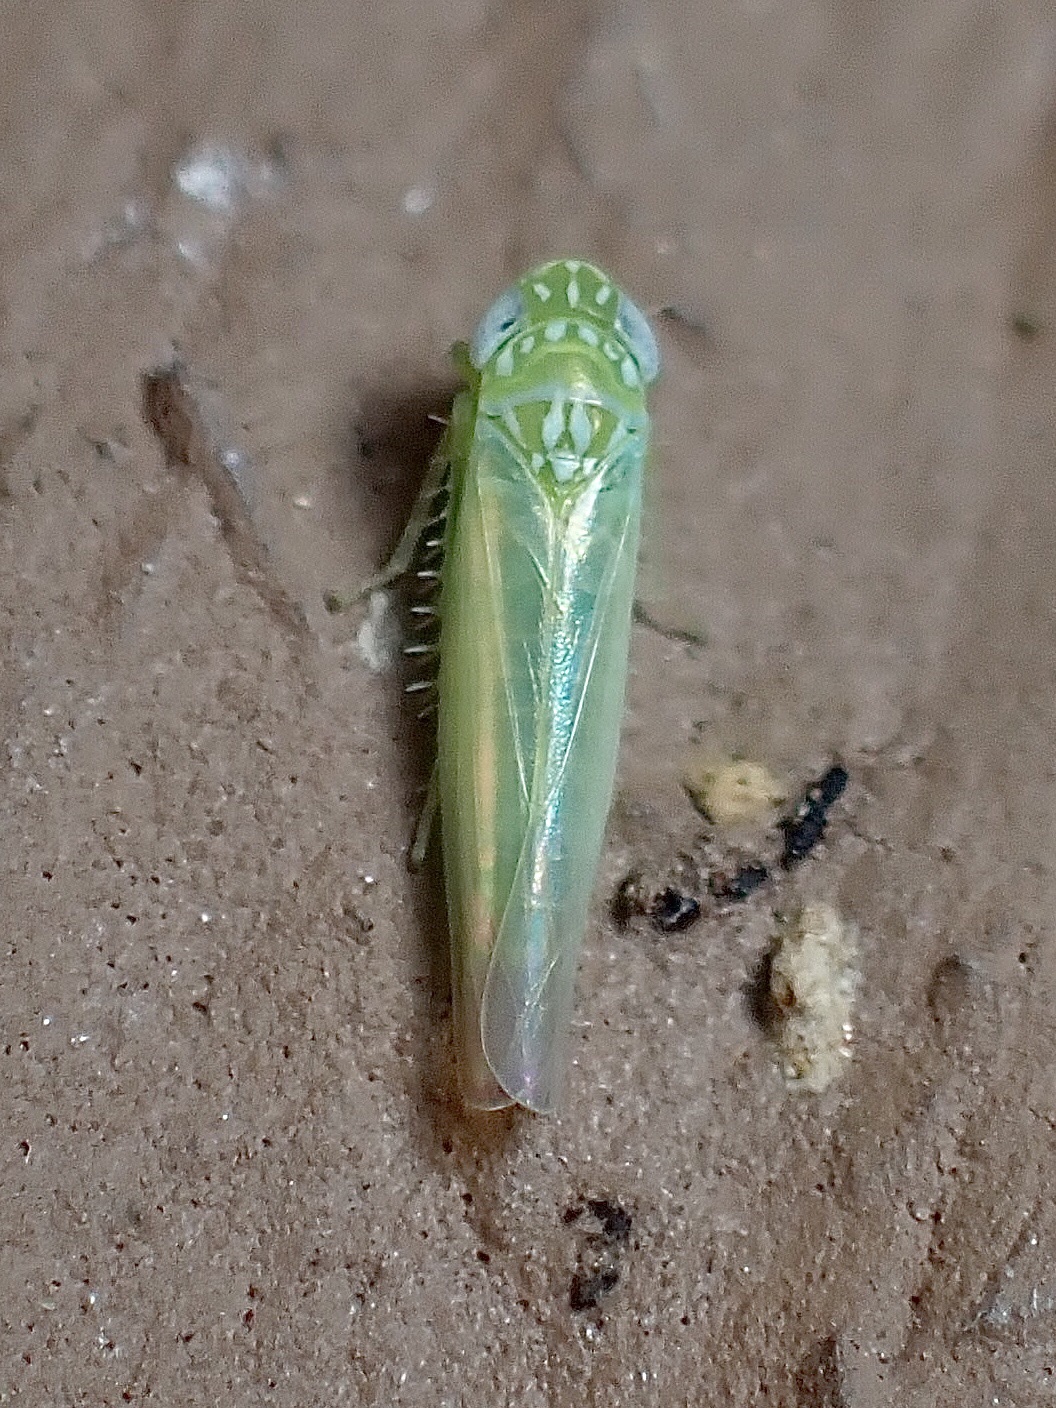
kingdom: Animalia
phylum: Arthropoda
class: Insecta
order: Hemiptera
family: Cicadellidae
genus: Empoasca
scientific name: Empoasca fabae
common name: Potato leafhopper
